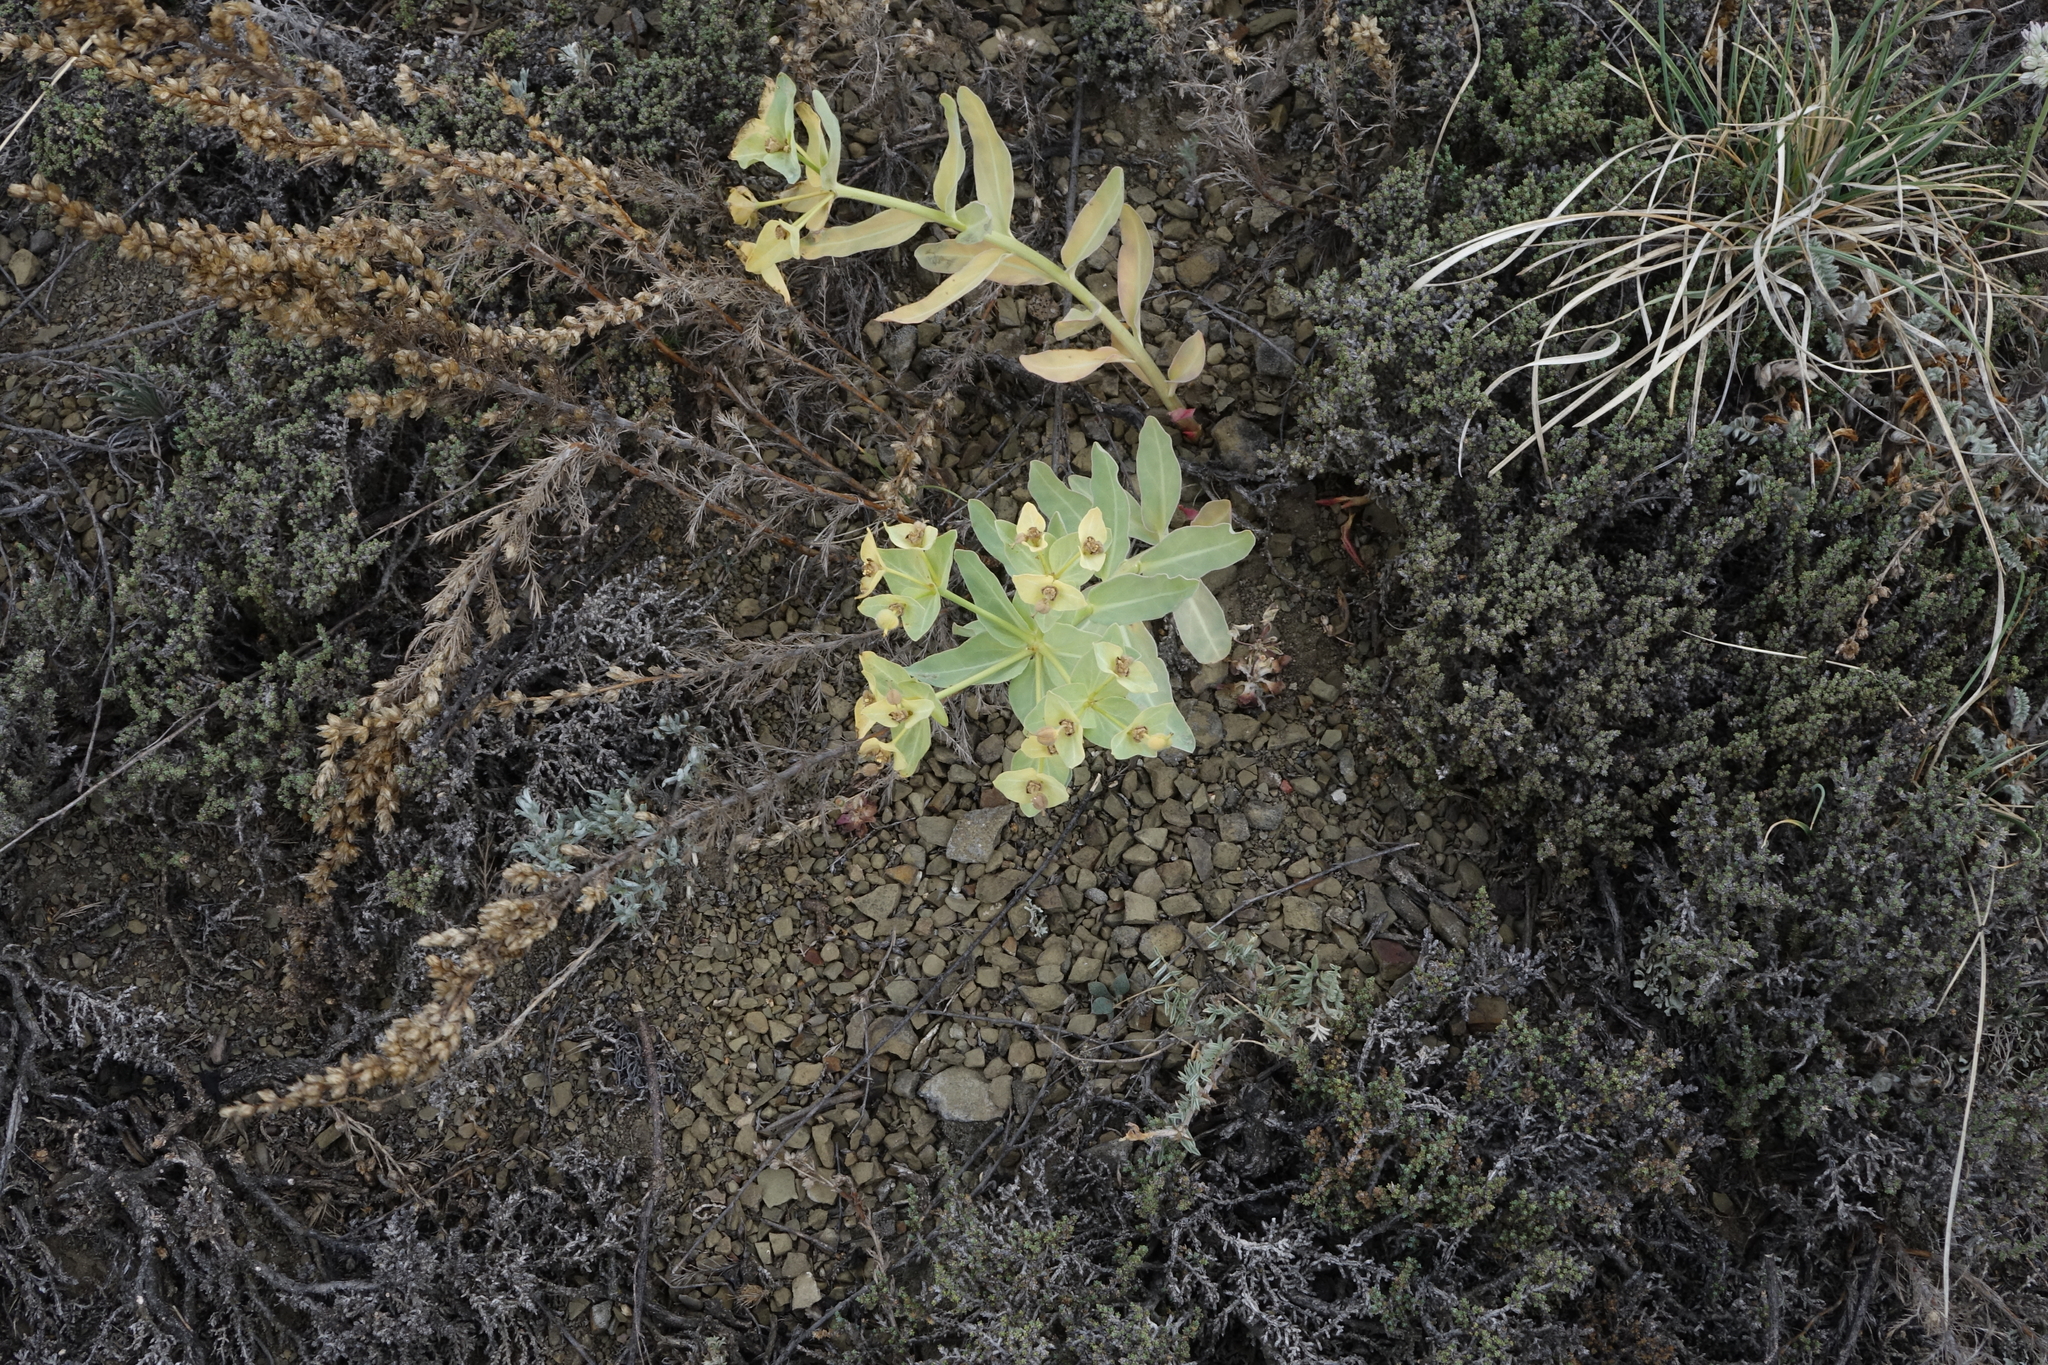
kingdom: Plantae
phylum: Tracheophyta
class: Magnoliopsida
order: Malpighiales
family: Euphorbiaceae
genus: Euphorbia
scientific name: Euphorbia mongolica
